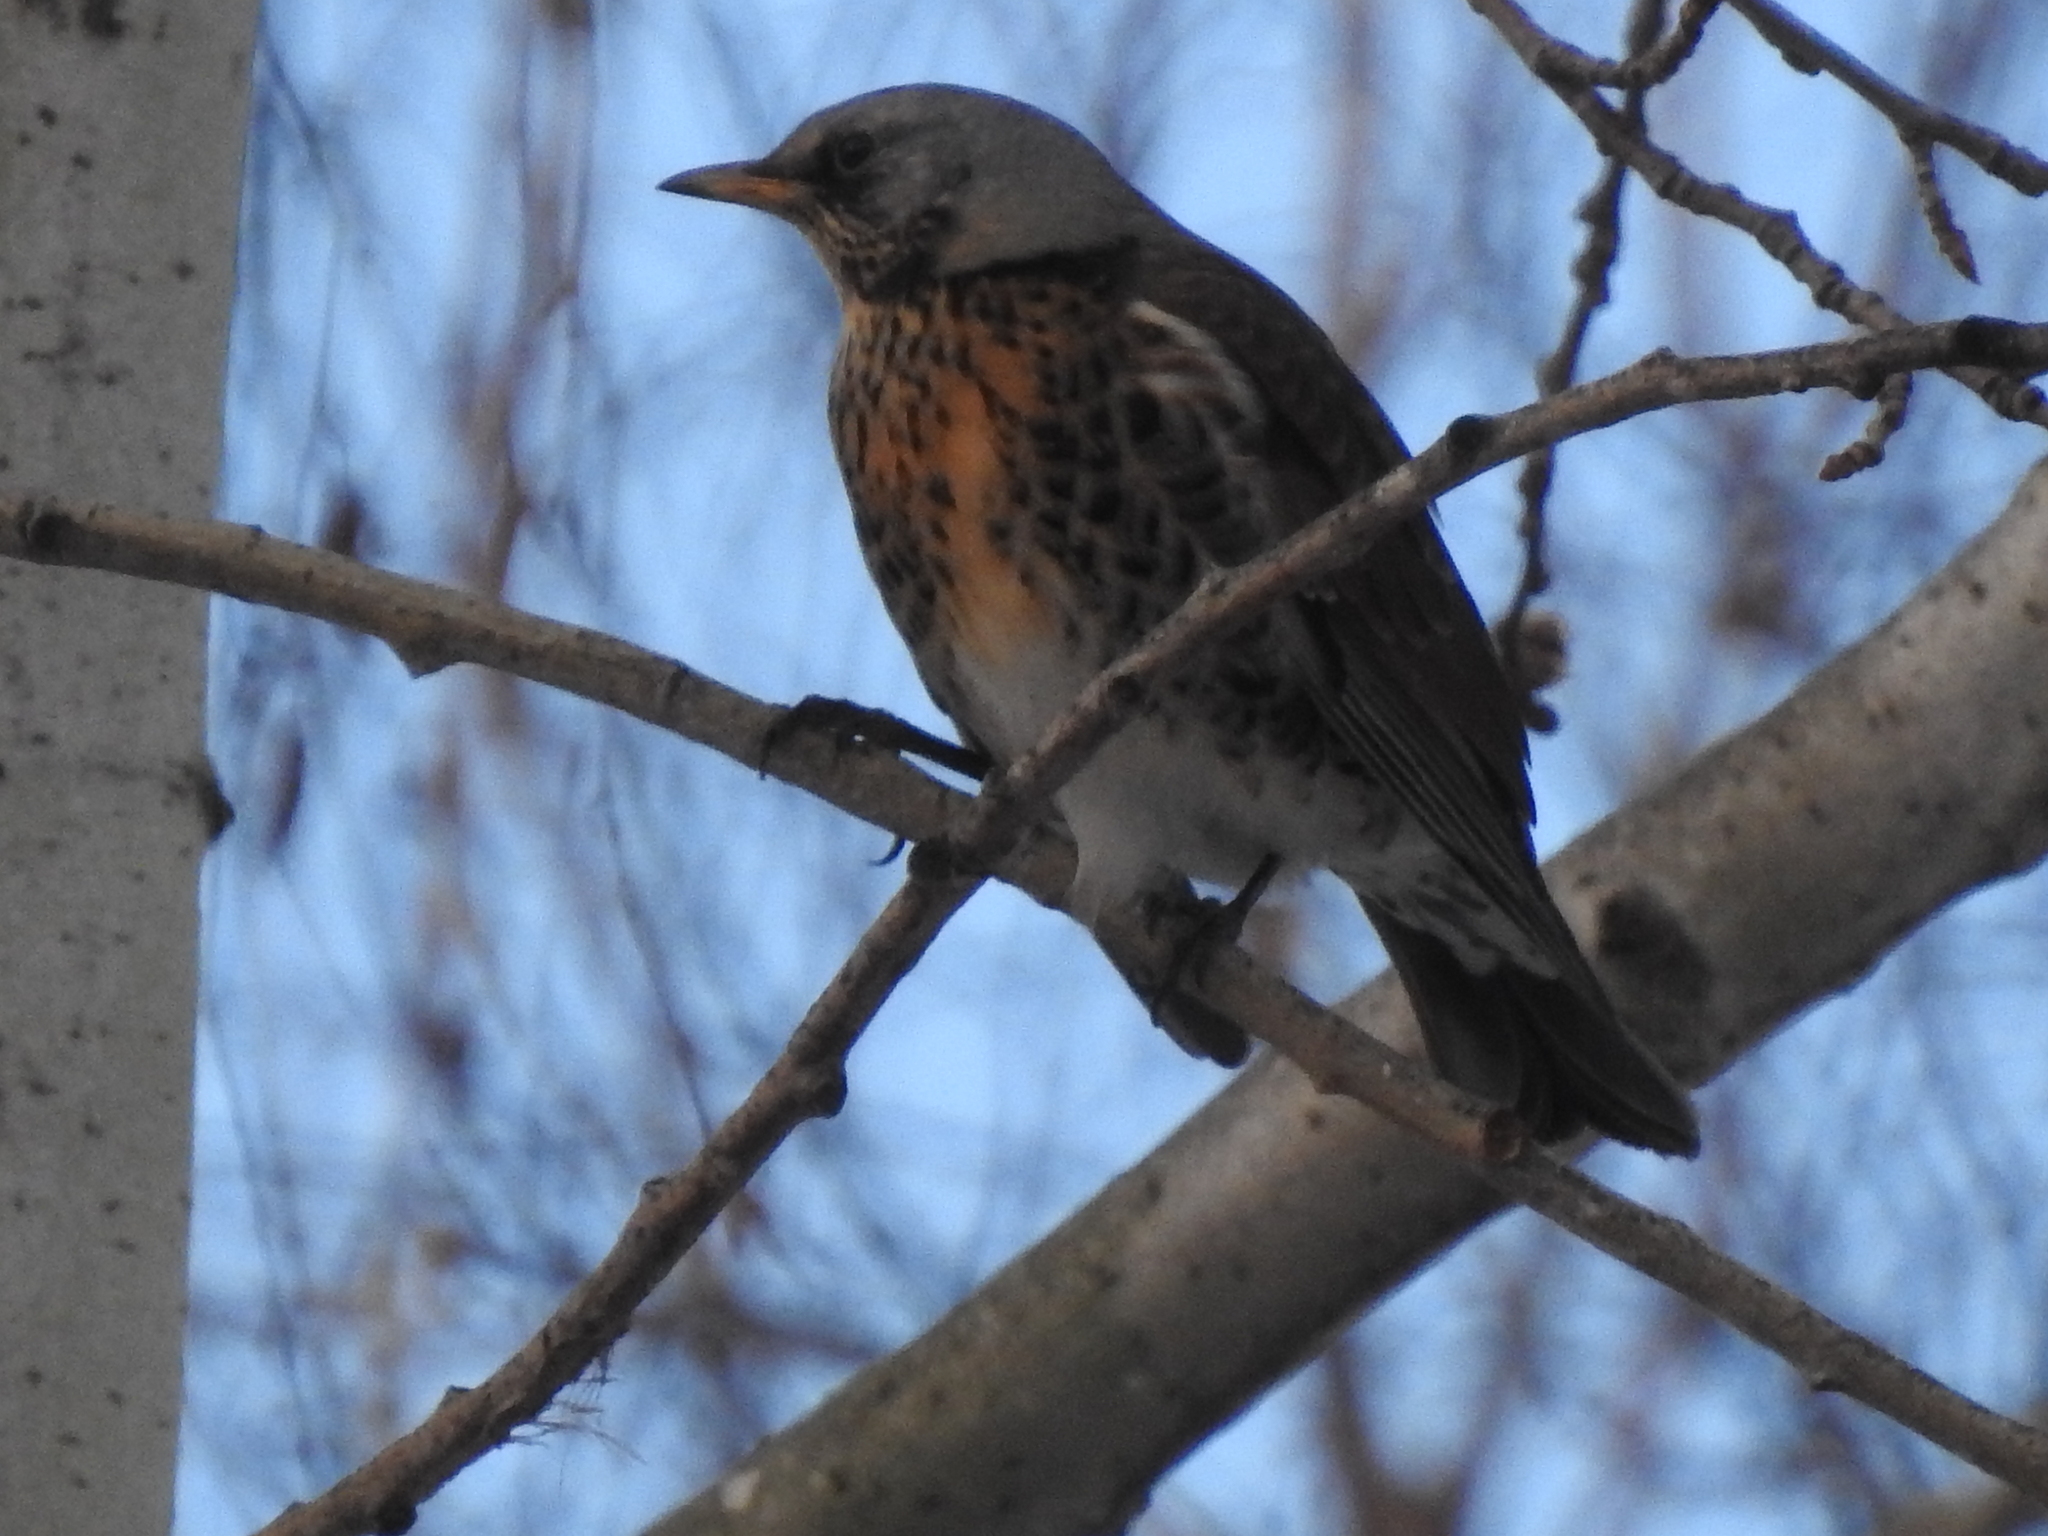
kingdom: Animalia
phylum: Chordata
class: Aves
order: Passeriformes
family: Turdidae
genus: Turdus
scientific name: Turdus pilaris
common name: Fieldfare
